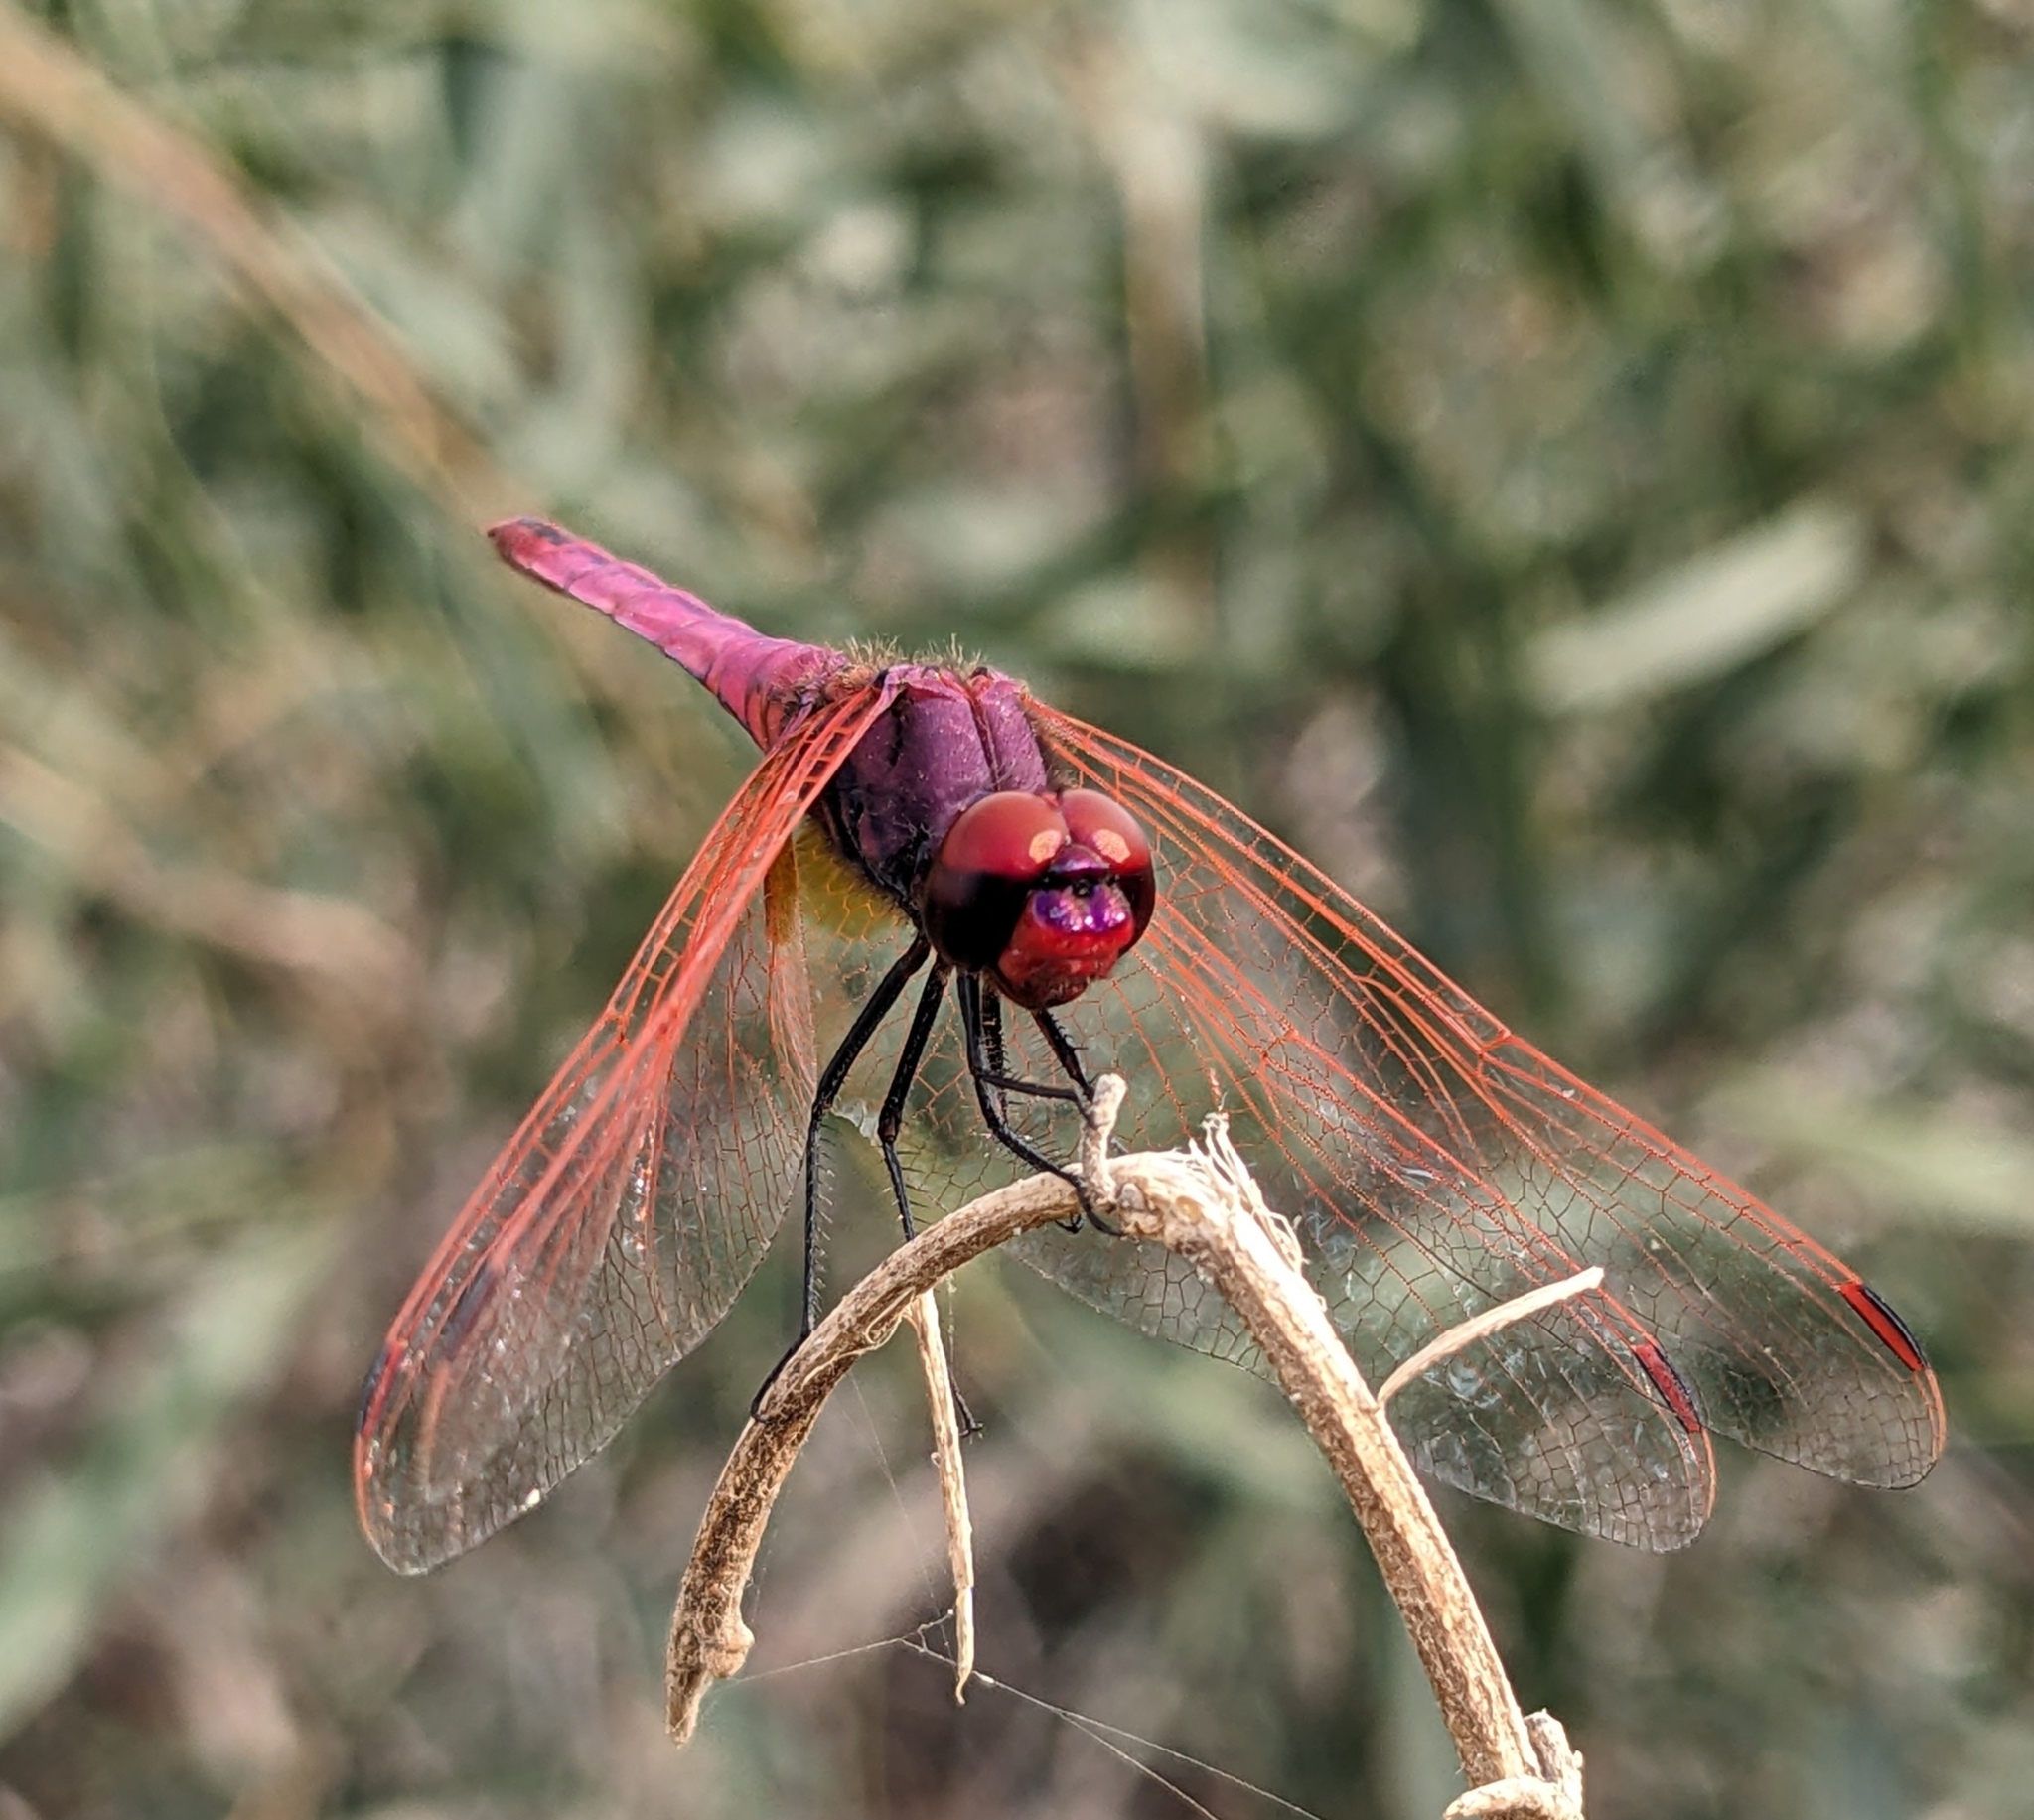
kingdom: Animalia
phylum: Arthropoda
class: Insecta
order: Odonata
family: Libellulidae
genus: Trithemis
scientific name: Trithemis annulata
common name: Violet dropwing
